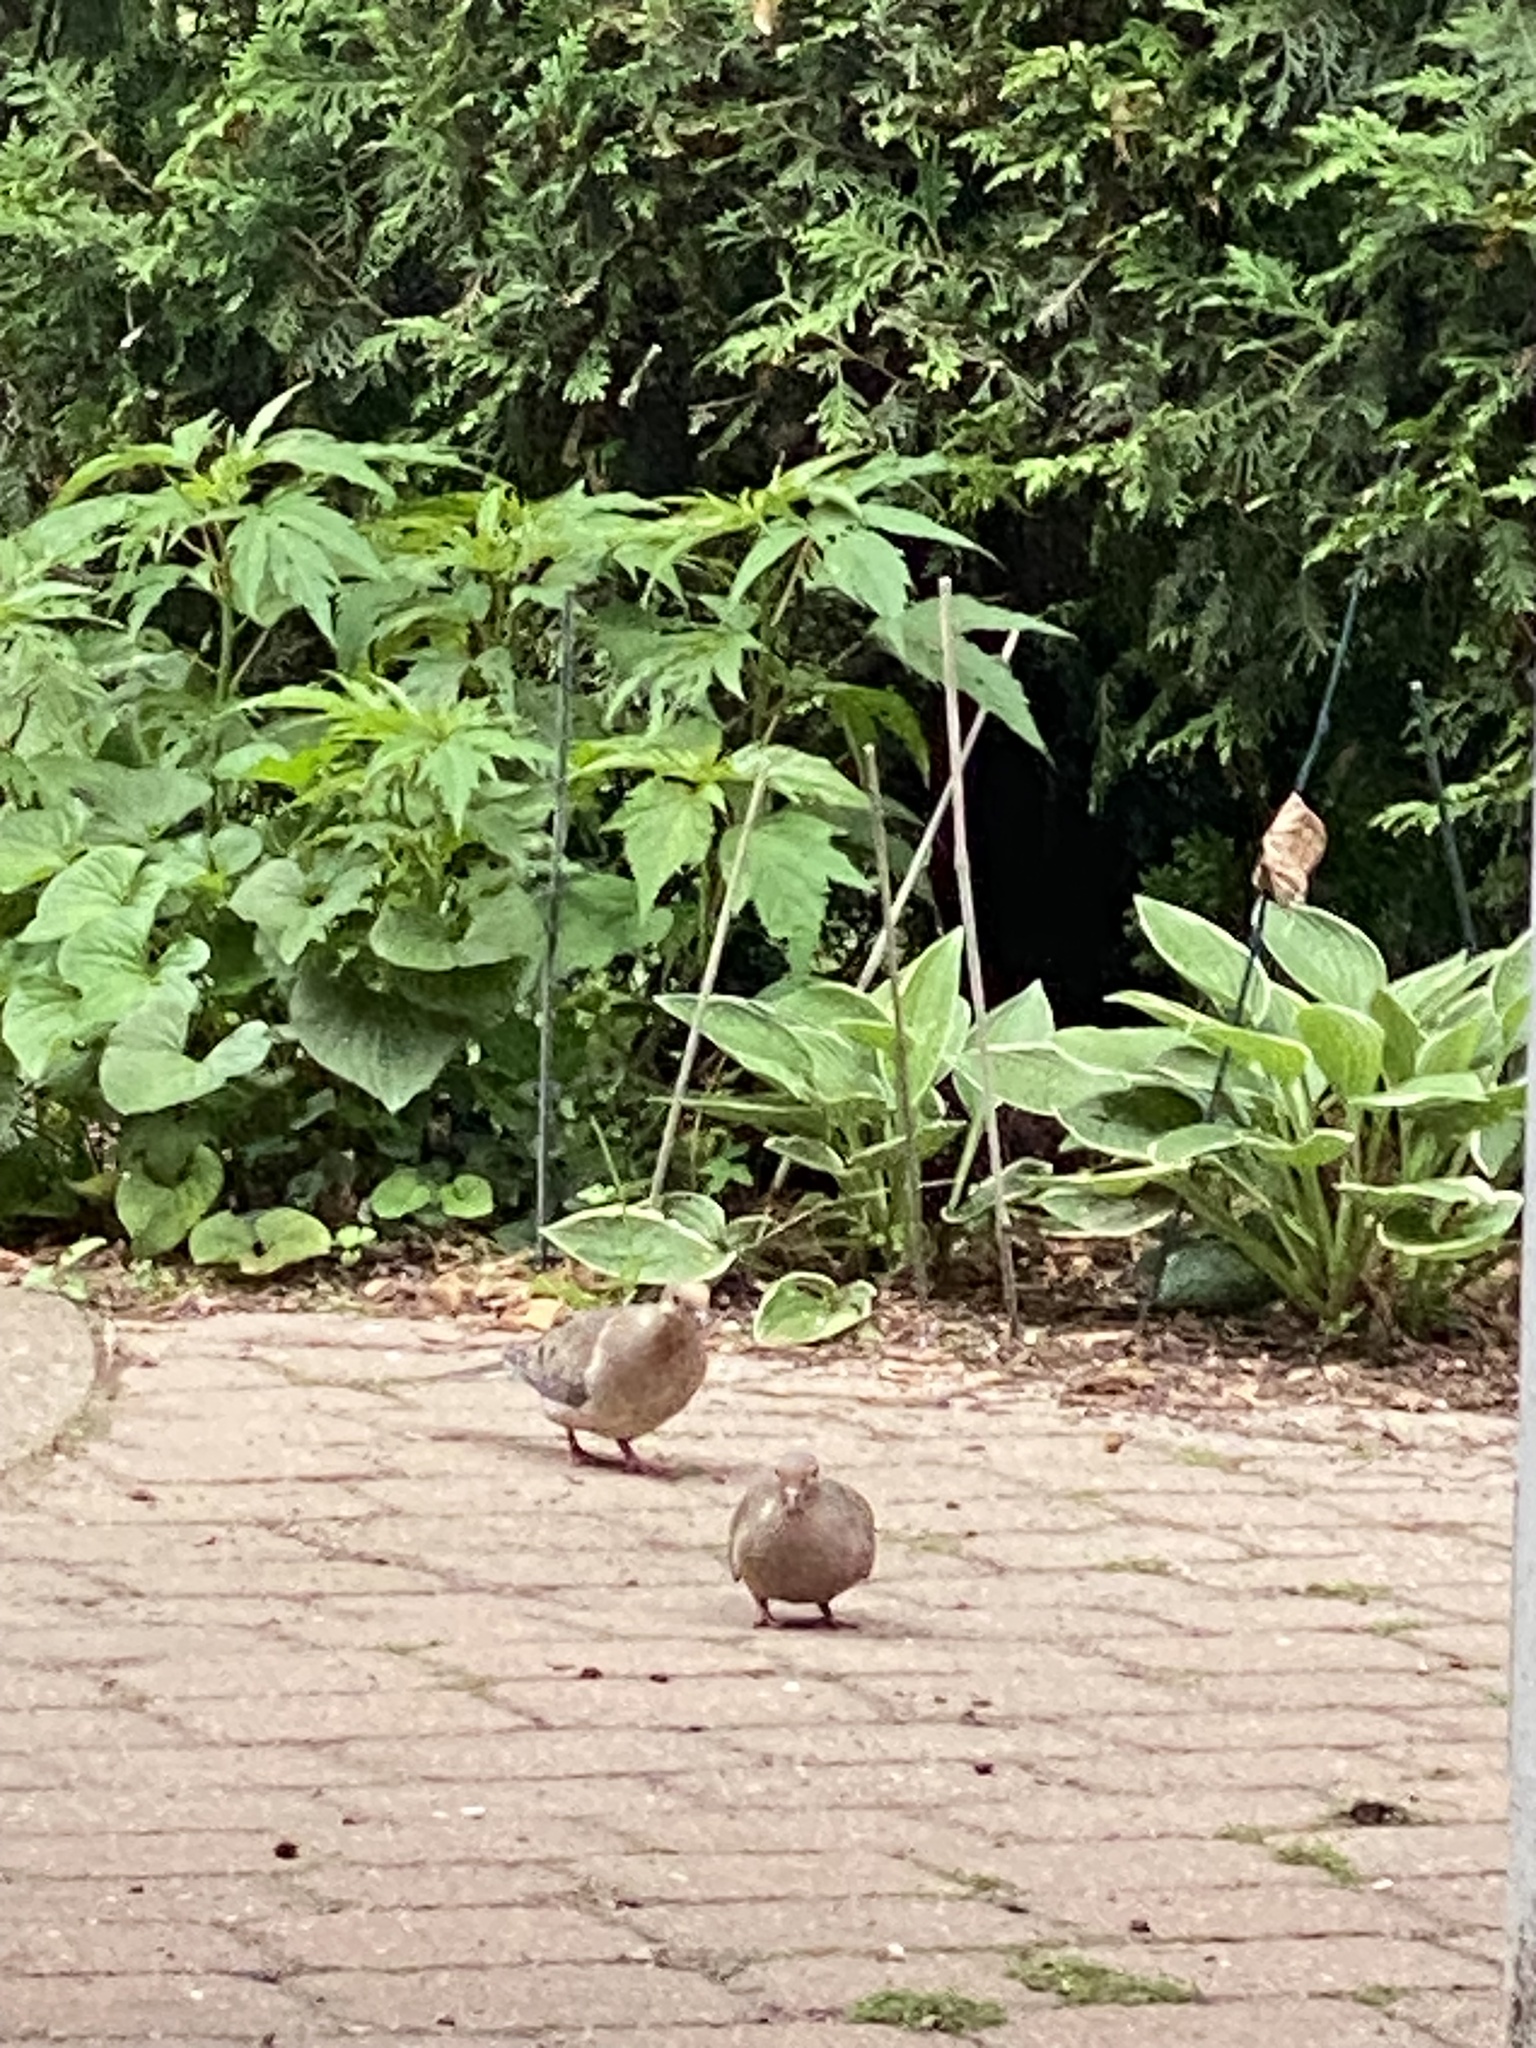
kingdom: Animalia
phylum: Chordata
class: Aves
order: Columbiformes
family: Columbidae
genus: Zenaida
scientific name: Zenaida macroura
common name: Mourning dove
